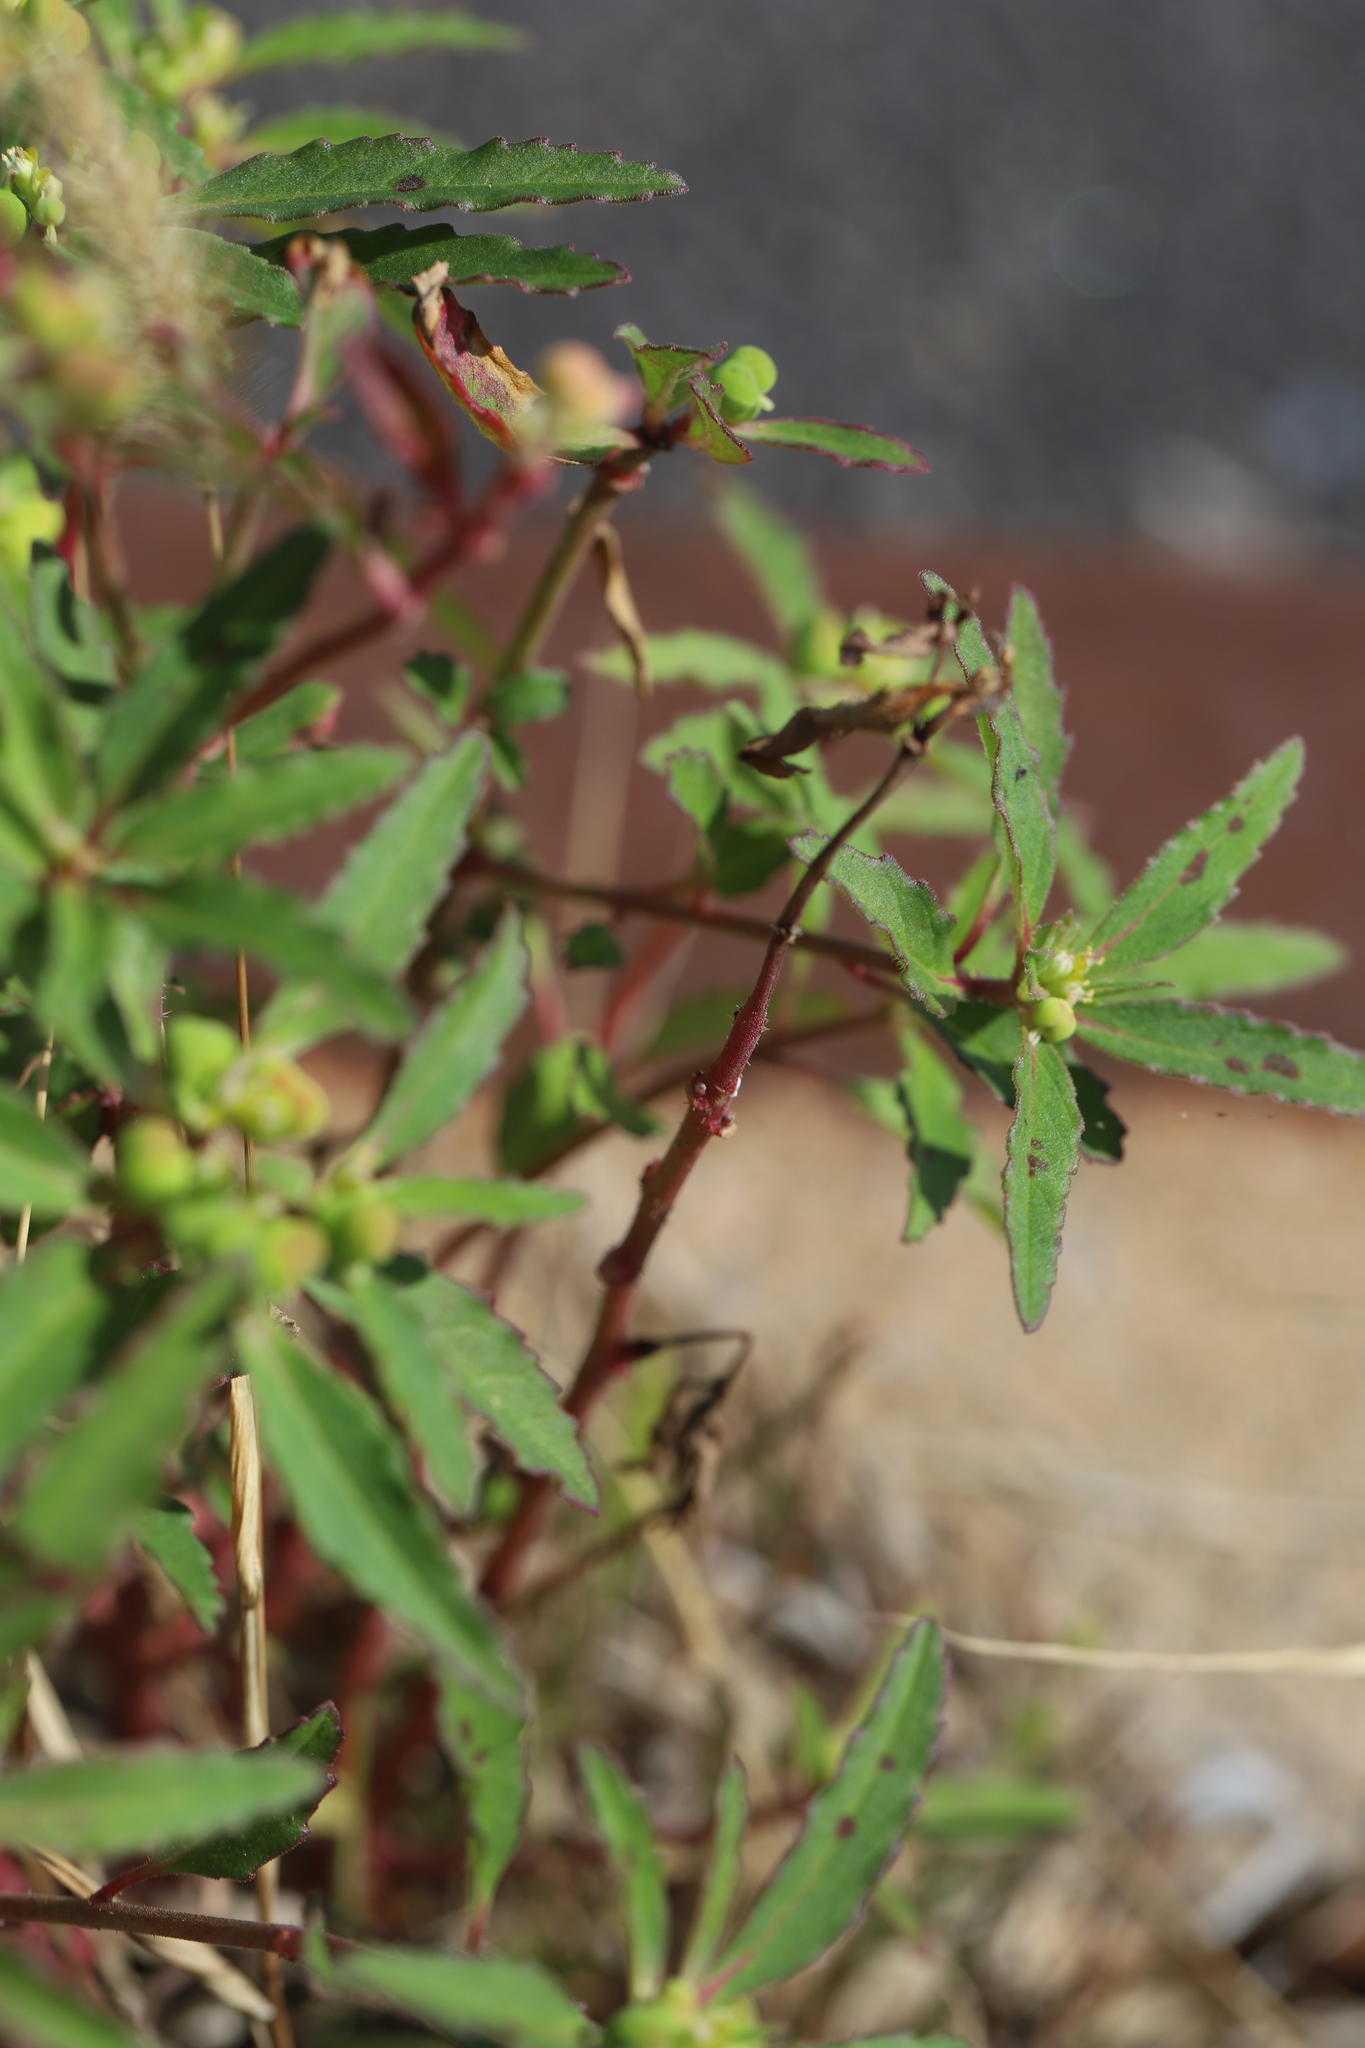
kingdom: Plantae
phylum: Tracheophyta
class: Magnoliopsida
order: Malpighiales
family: Euphorbiaceae
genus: Euphorbia
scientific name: Euphorbia davidii
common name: David's spurge
